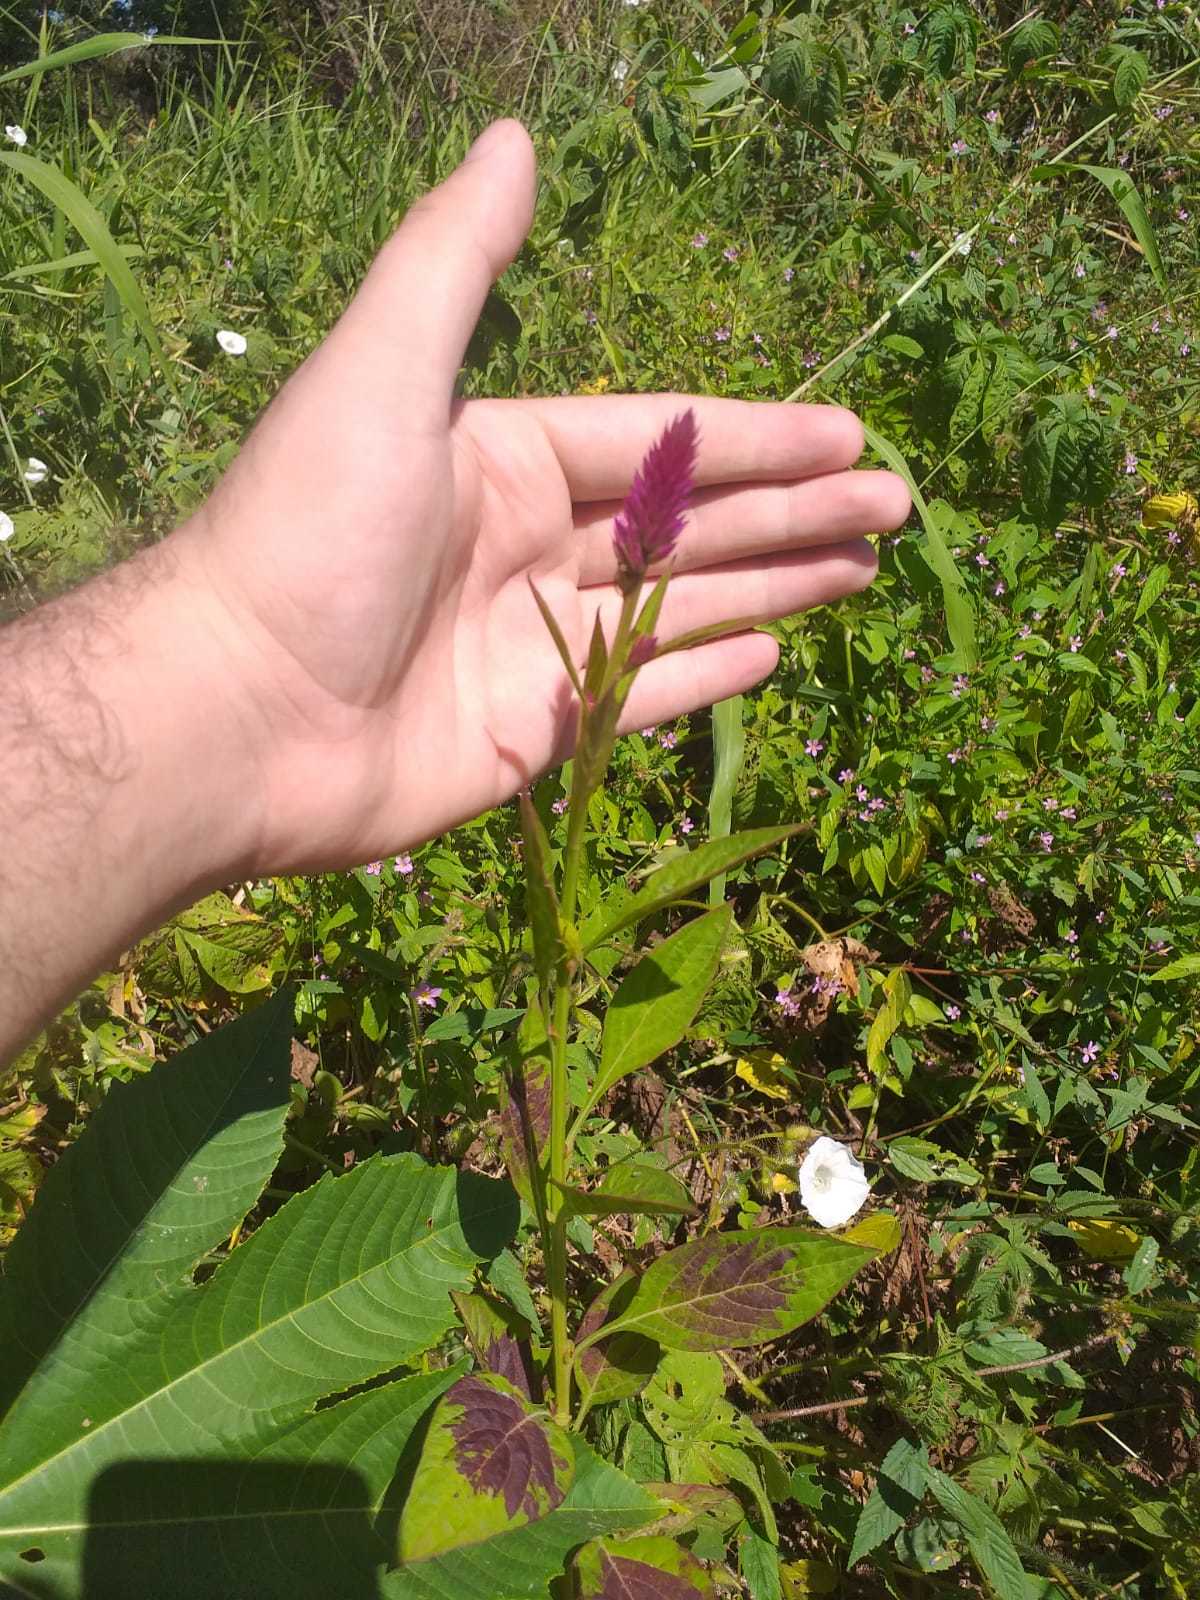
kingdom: Plantae
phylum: Tracheophyta
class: Magnoliopsida
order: Caryophyllales
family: Amaranthaceae
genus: Celosia
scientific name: Celosia argentea
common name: Feather cockscomb
